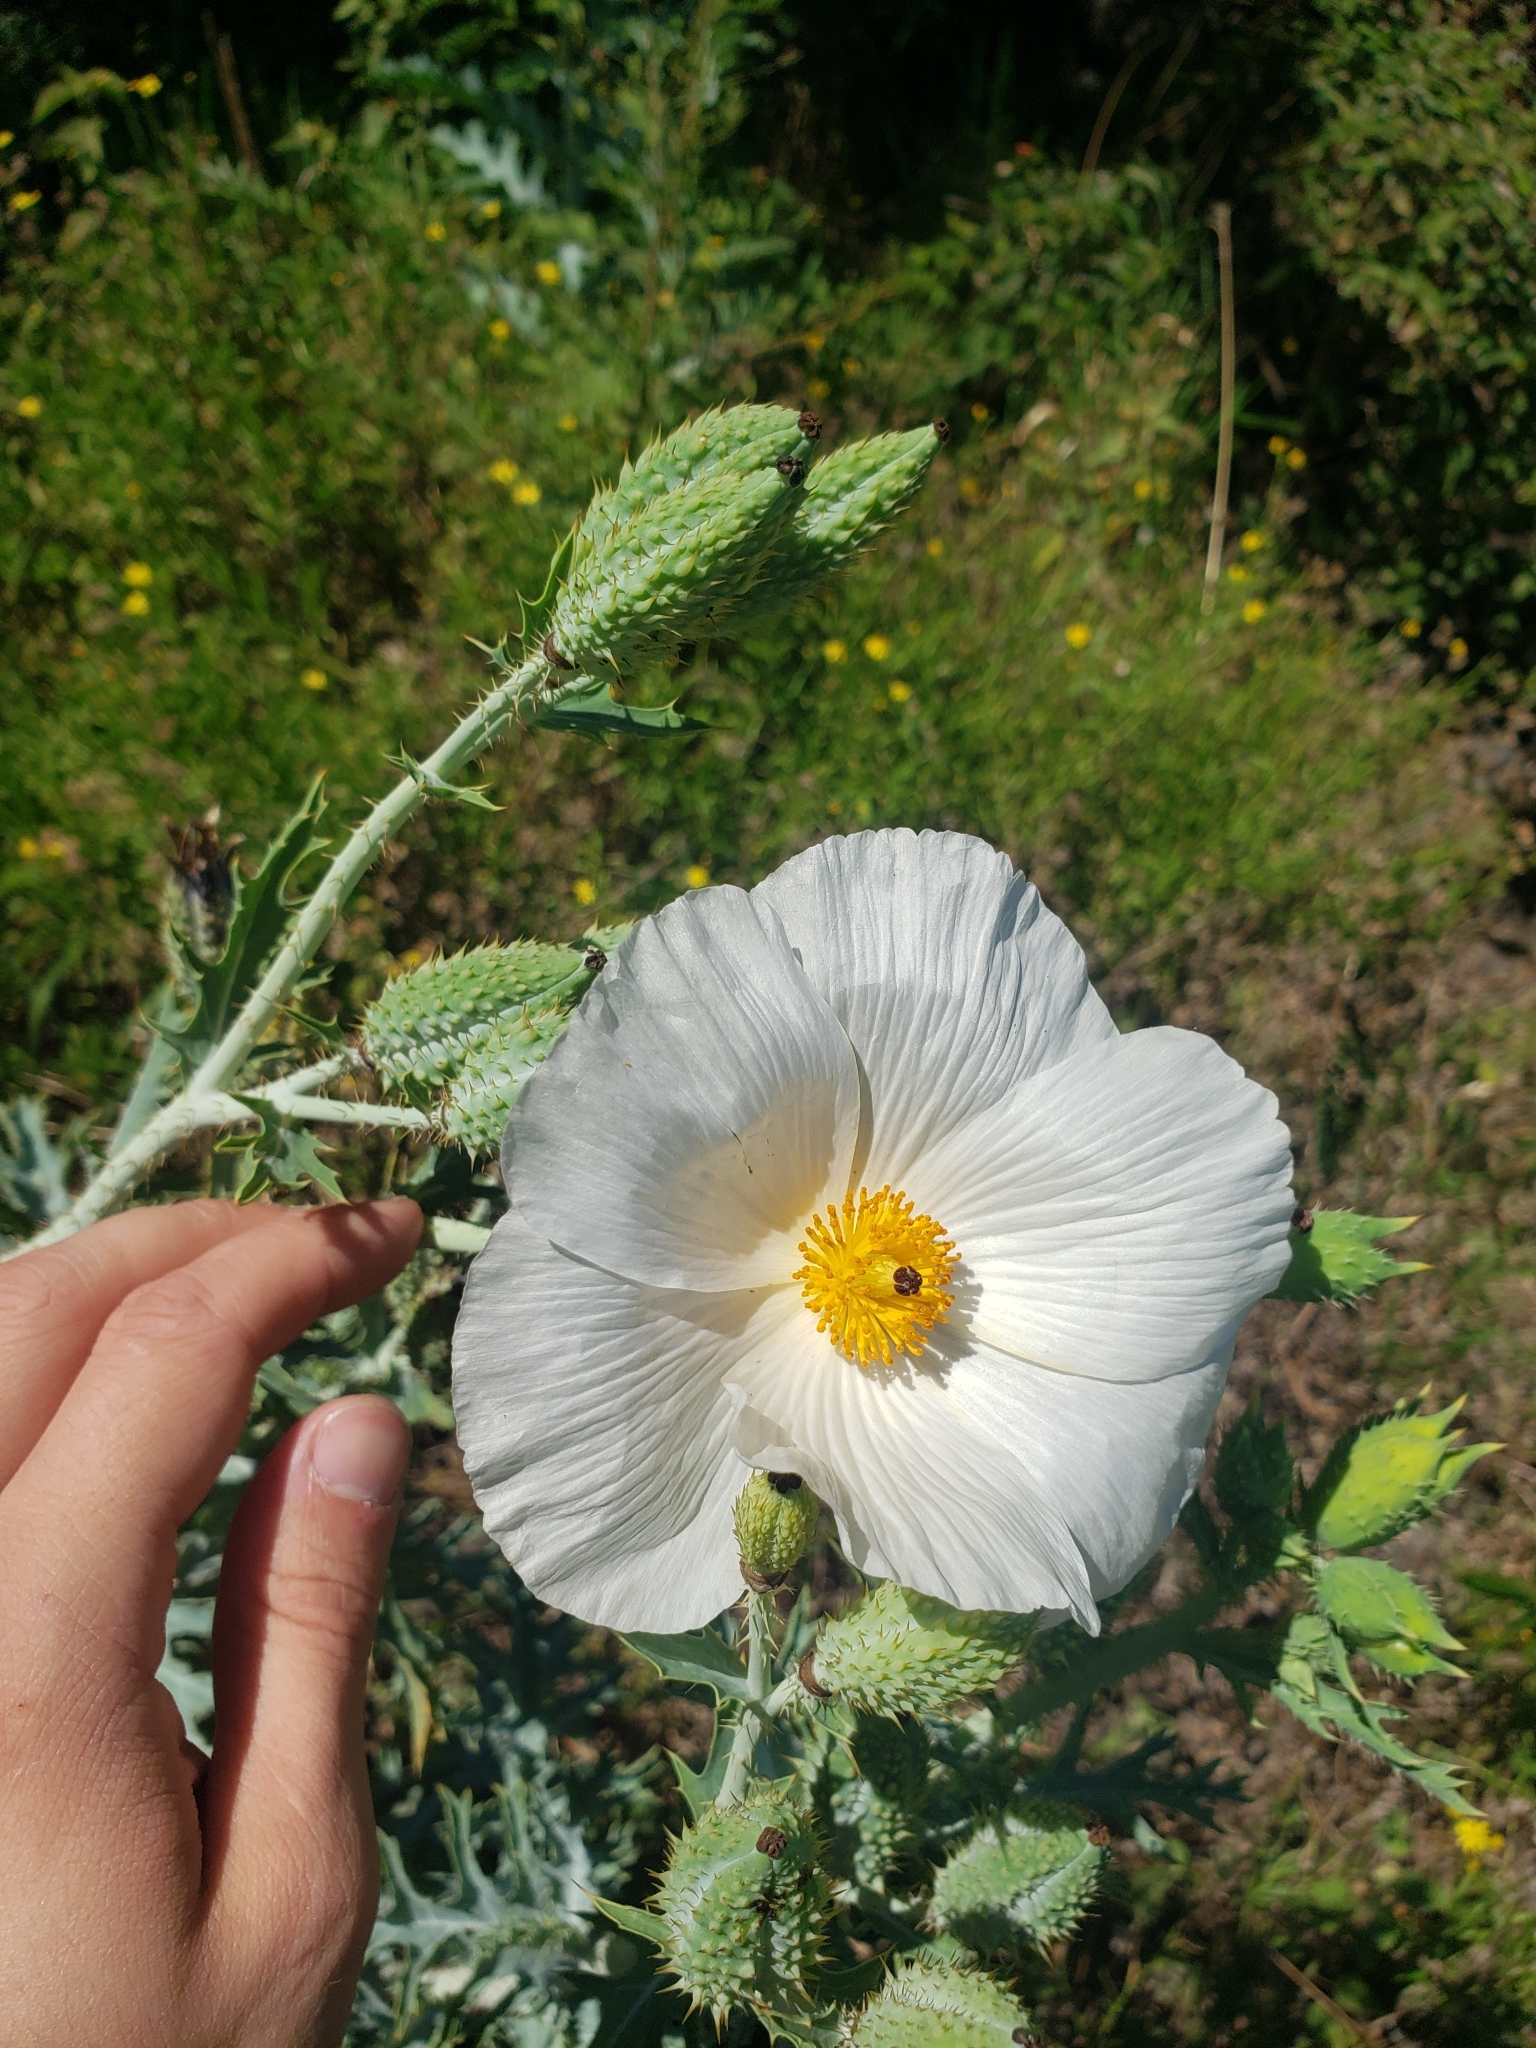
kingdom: Plantae
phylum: Tracheophyta
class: Magnoliopsida
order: Ranunculales
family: Papaveraceae
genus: Argemone
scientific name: Argemone glauca
